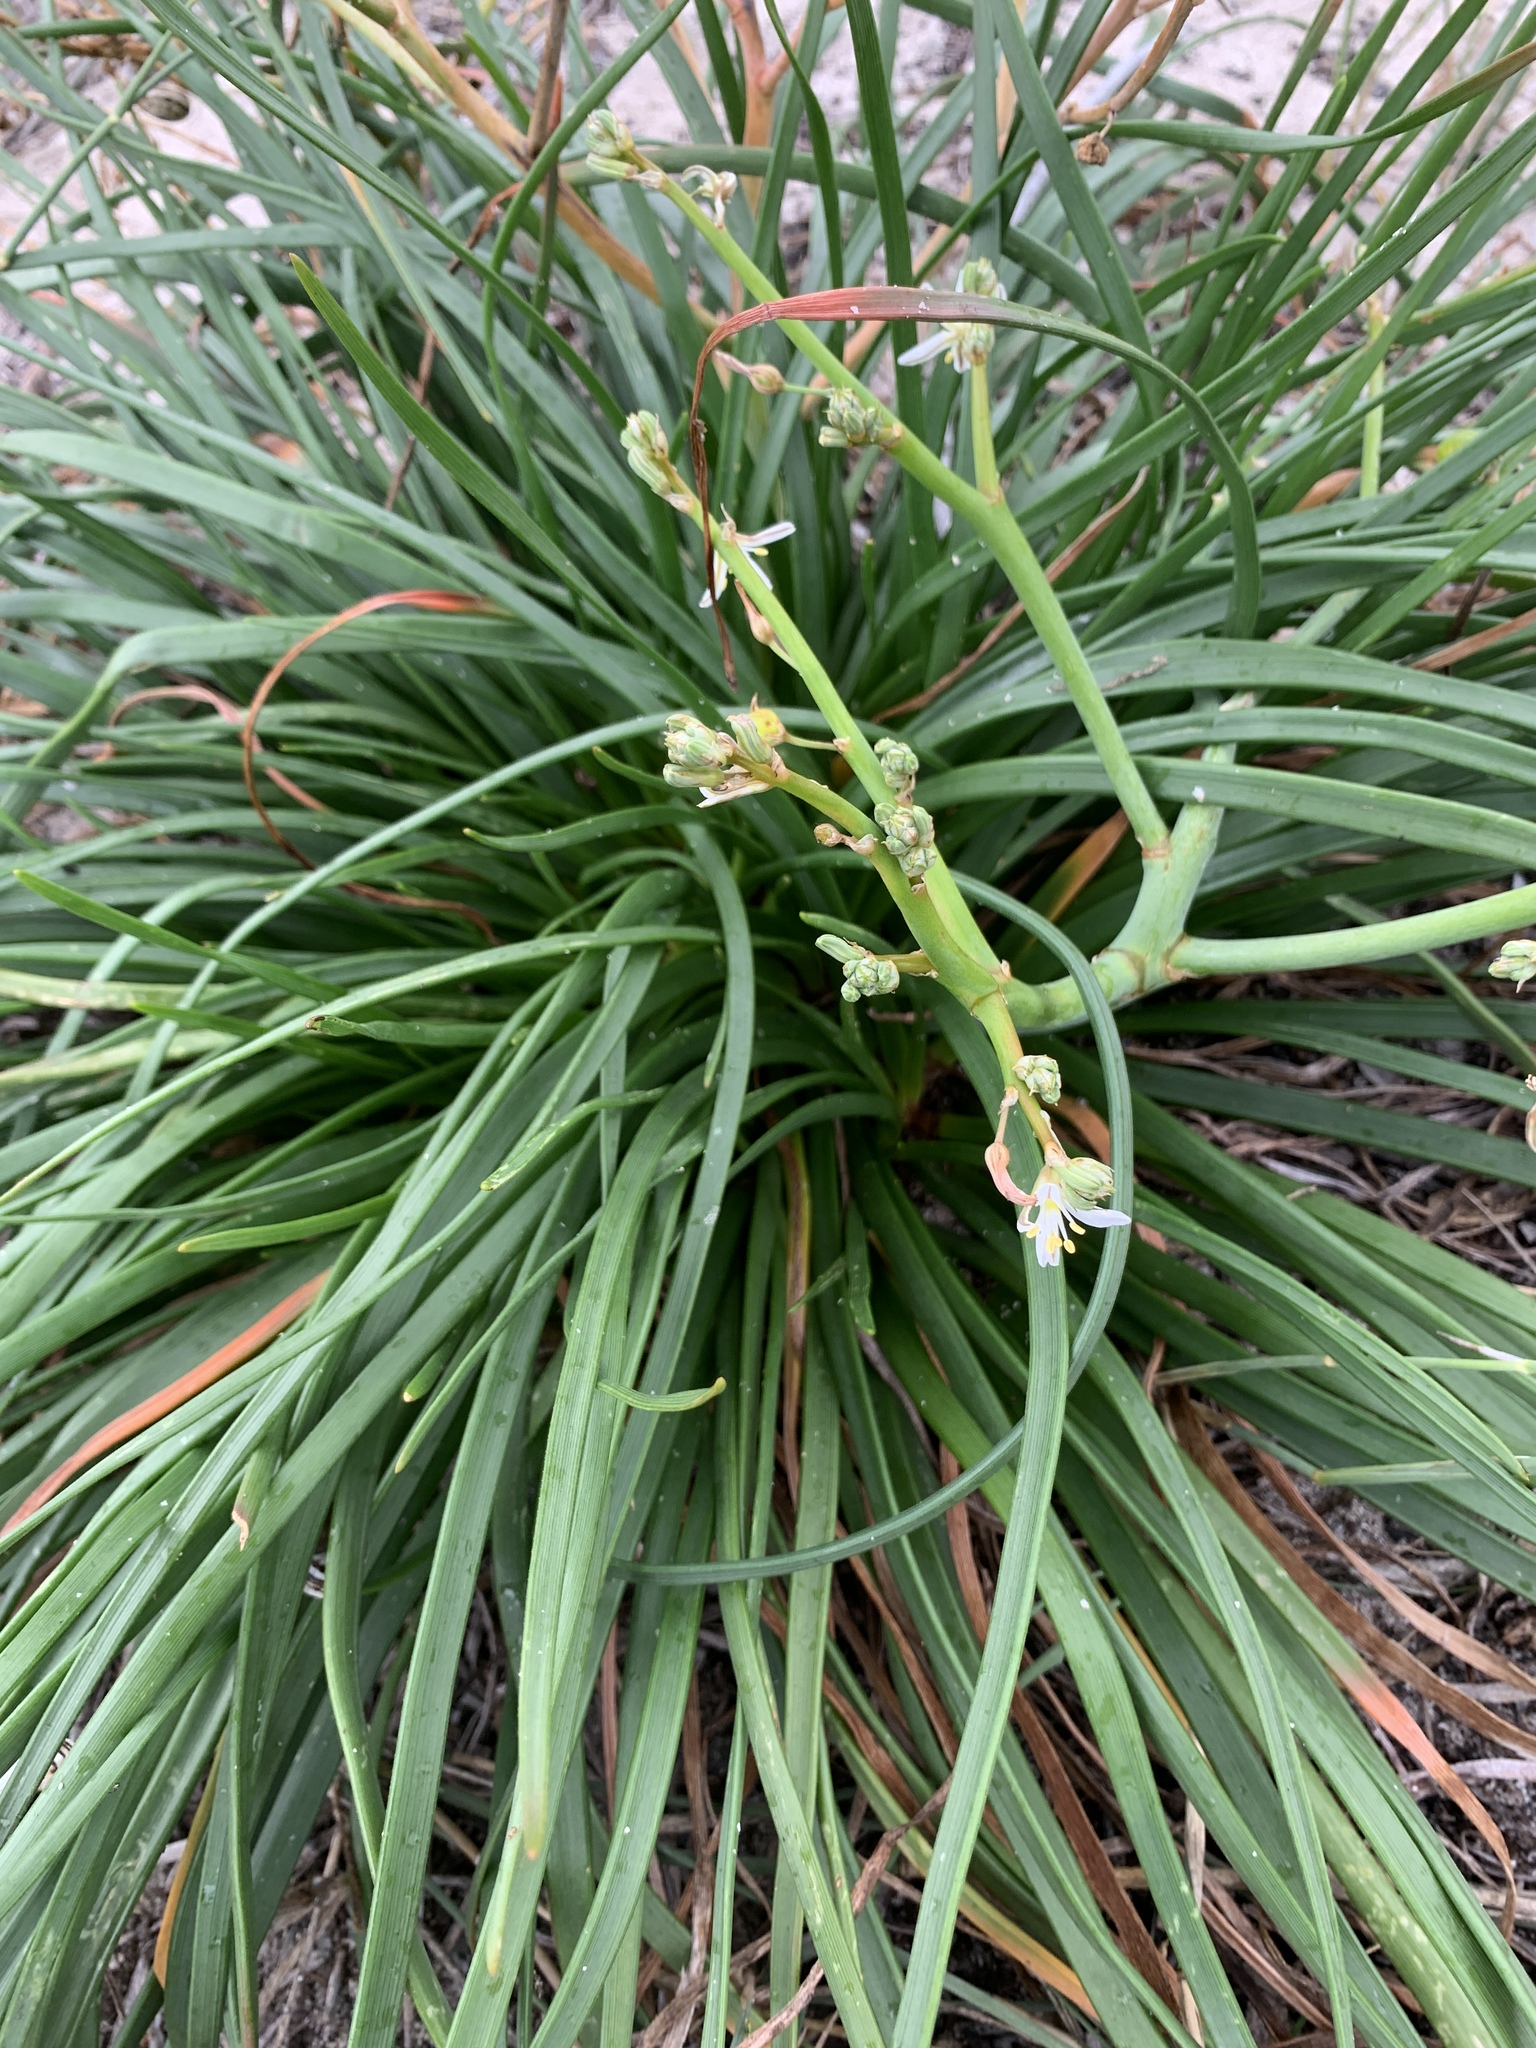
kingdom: Plantae
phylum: Tracheophyta
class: Liliopsida
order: Asparagales
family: Asphodelaceae
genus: Trachyandra
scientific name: Trachyandra divaricata
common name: Dune onionweed
